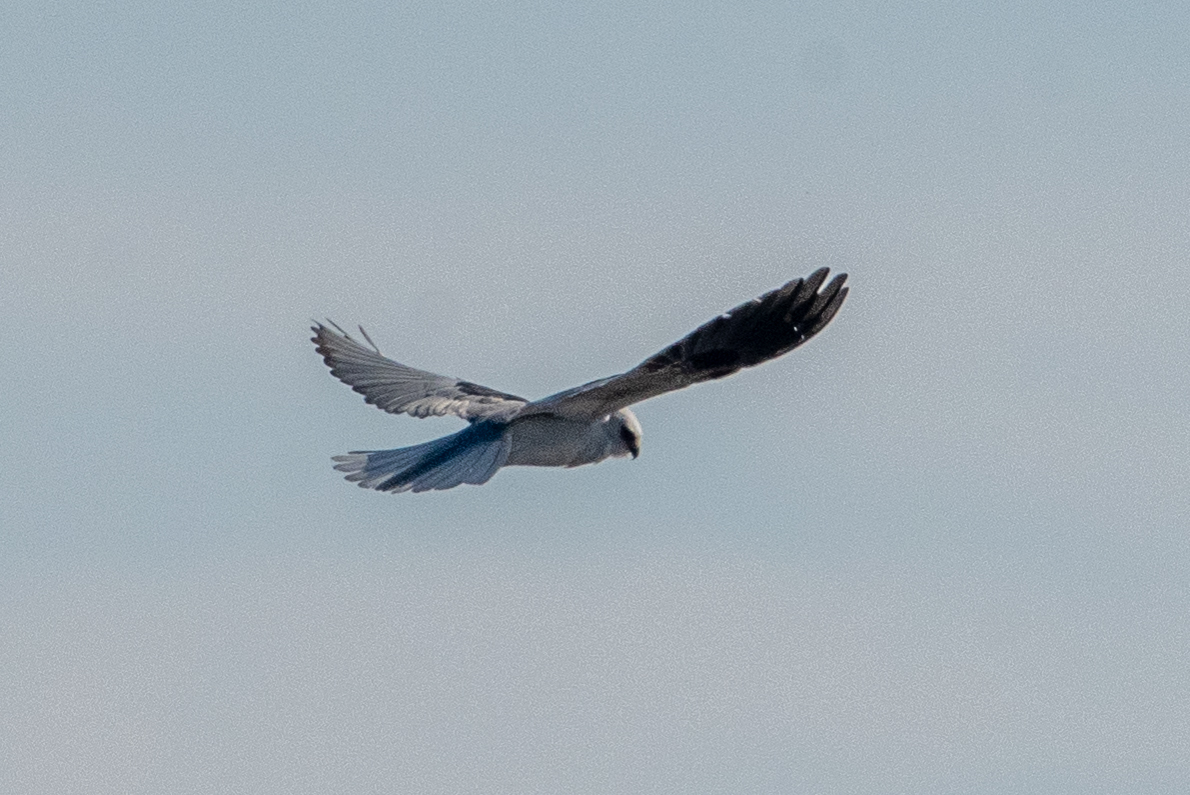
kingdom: Animalia
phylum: Chordata
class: Aves
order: Accipitriformes
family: Accipitridae
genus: Elanus
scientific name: Elanus leucurus
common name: White-tailed kite
